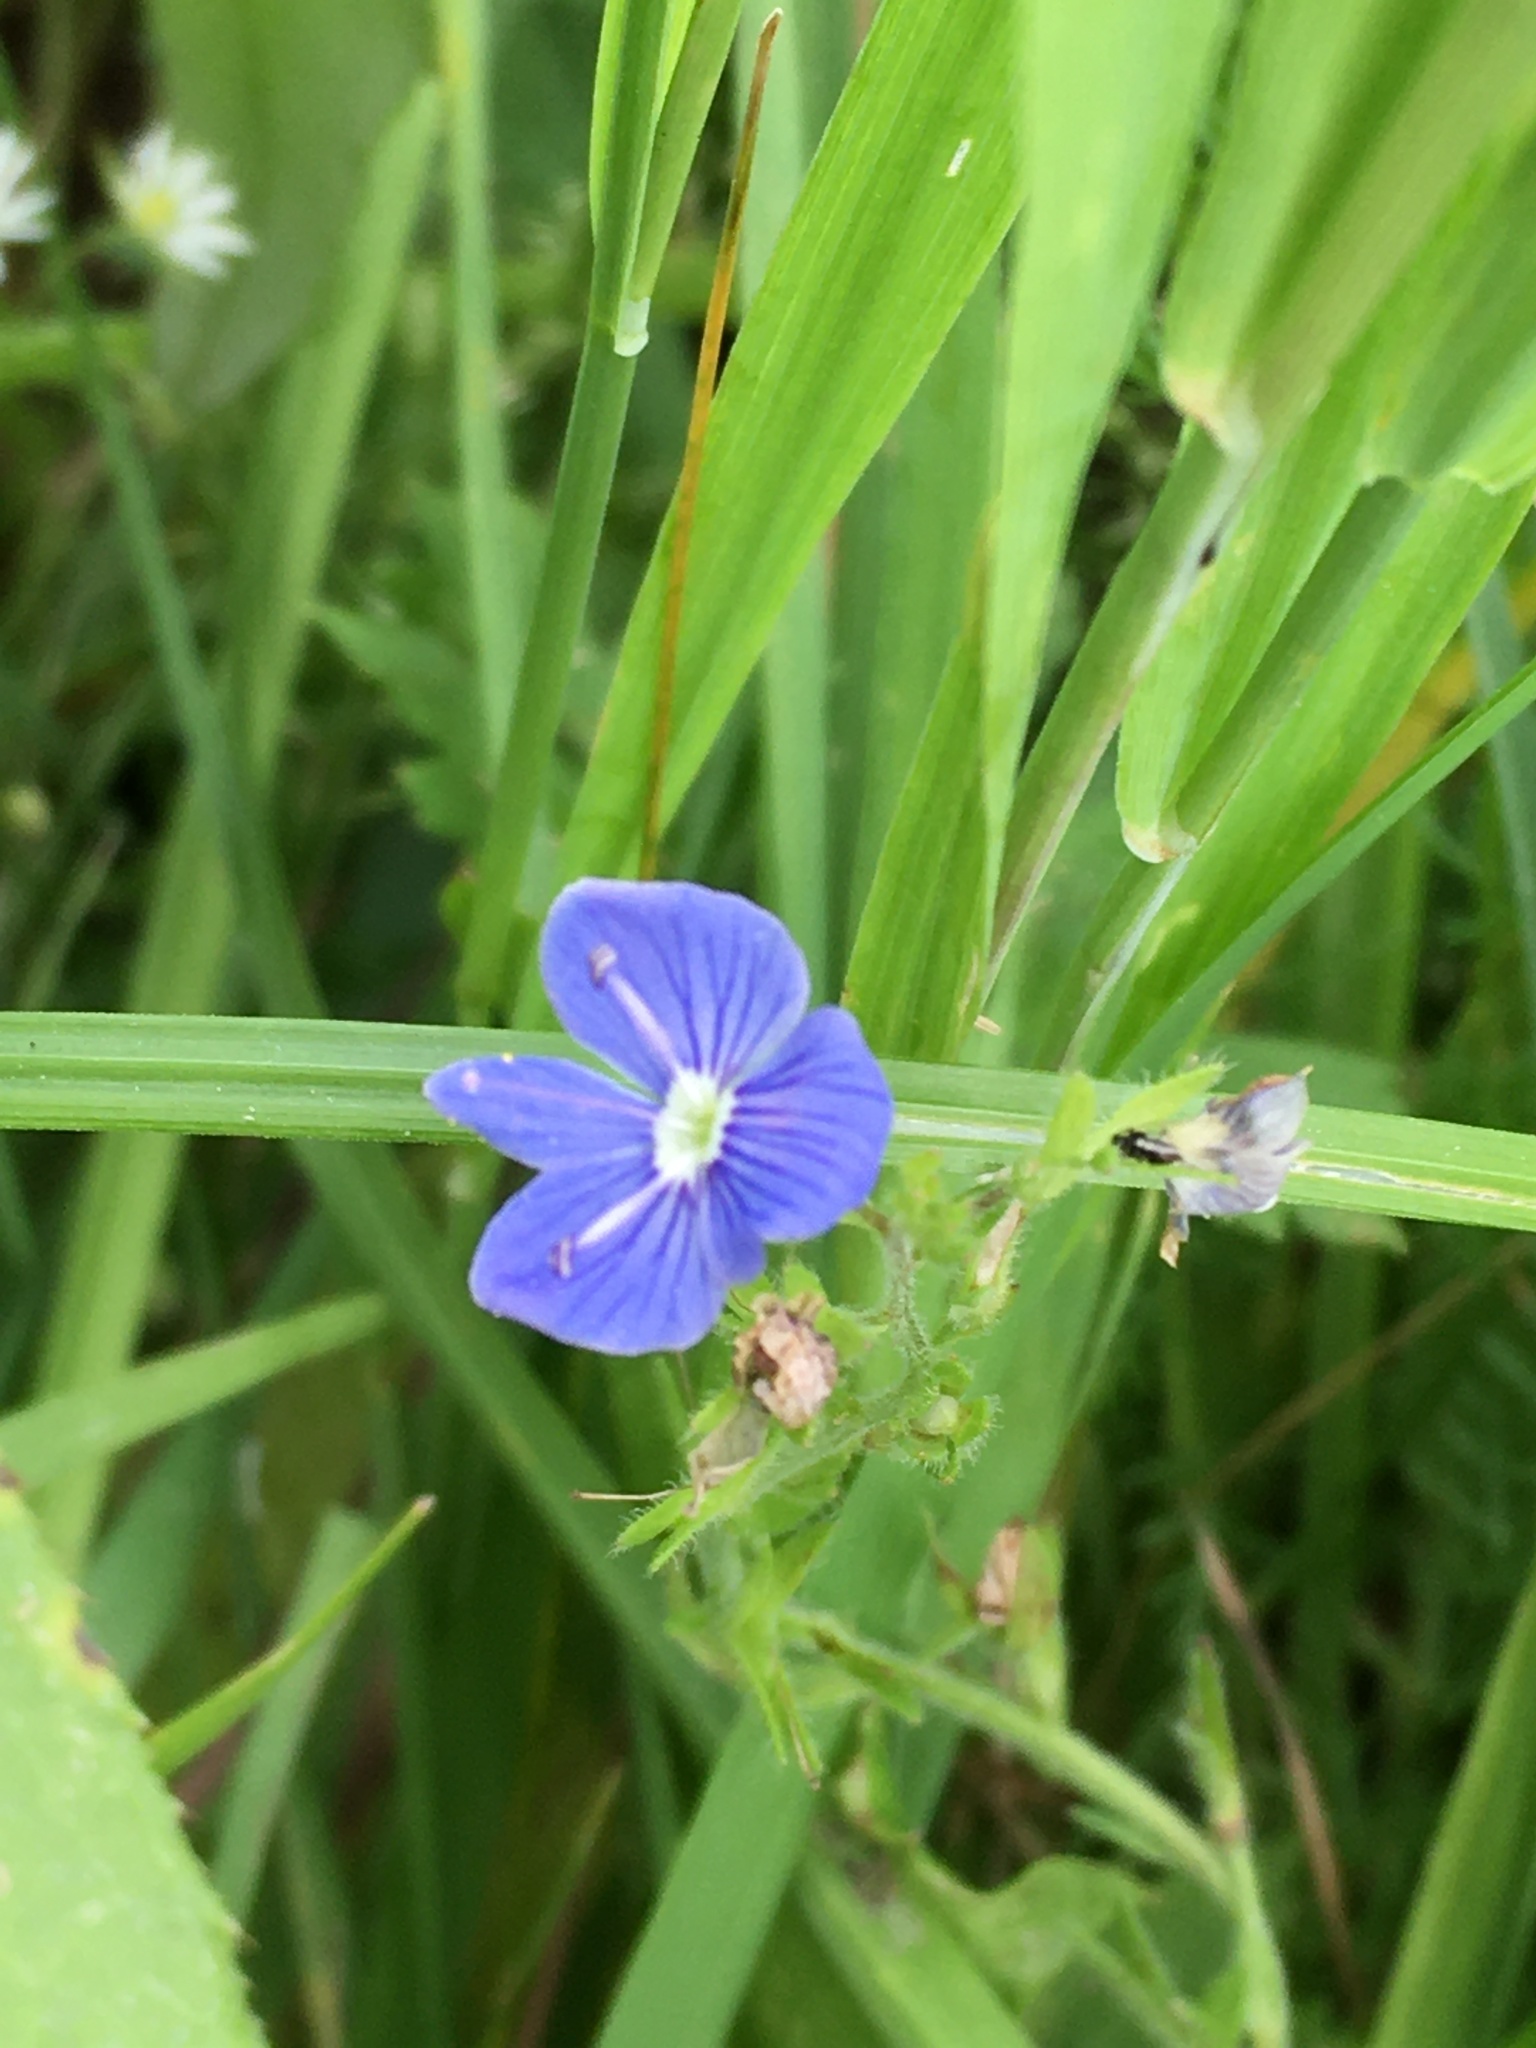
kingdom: Plantae
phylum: Tracheophyta
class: Magnoliopsida
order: Lamiales
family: Plantaginaceae
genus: Veronica
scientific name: Veronica chamaedrys
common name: Germander speedwell
